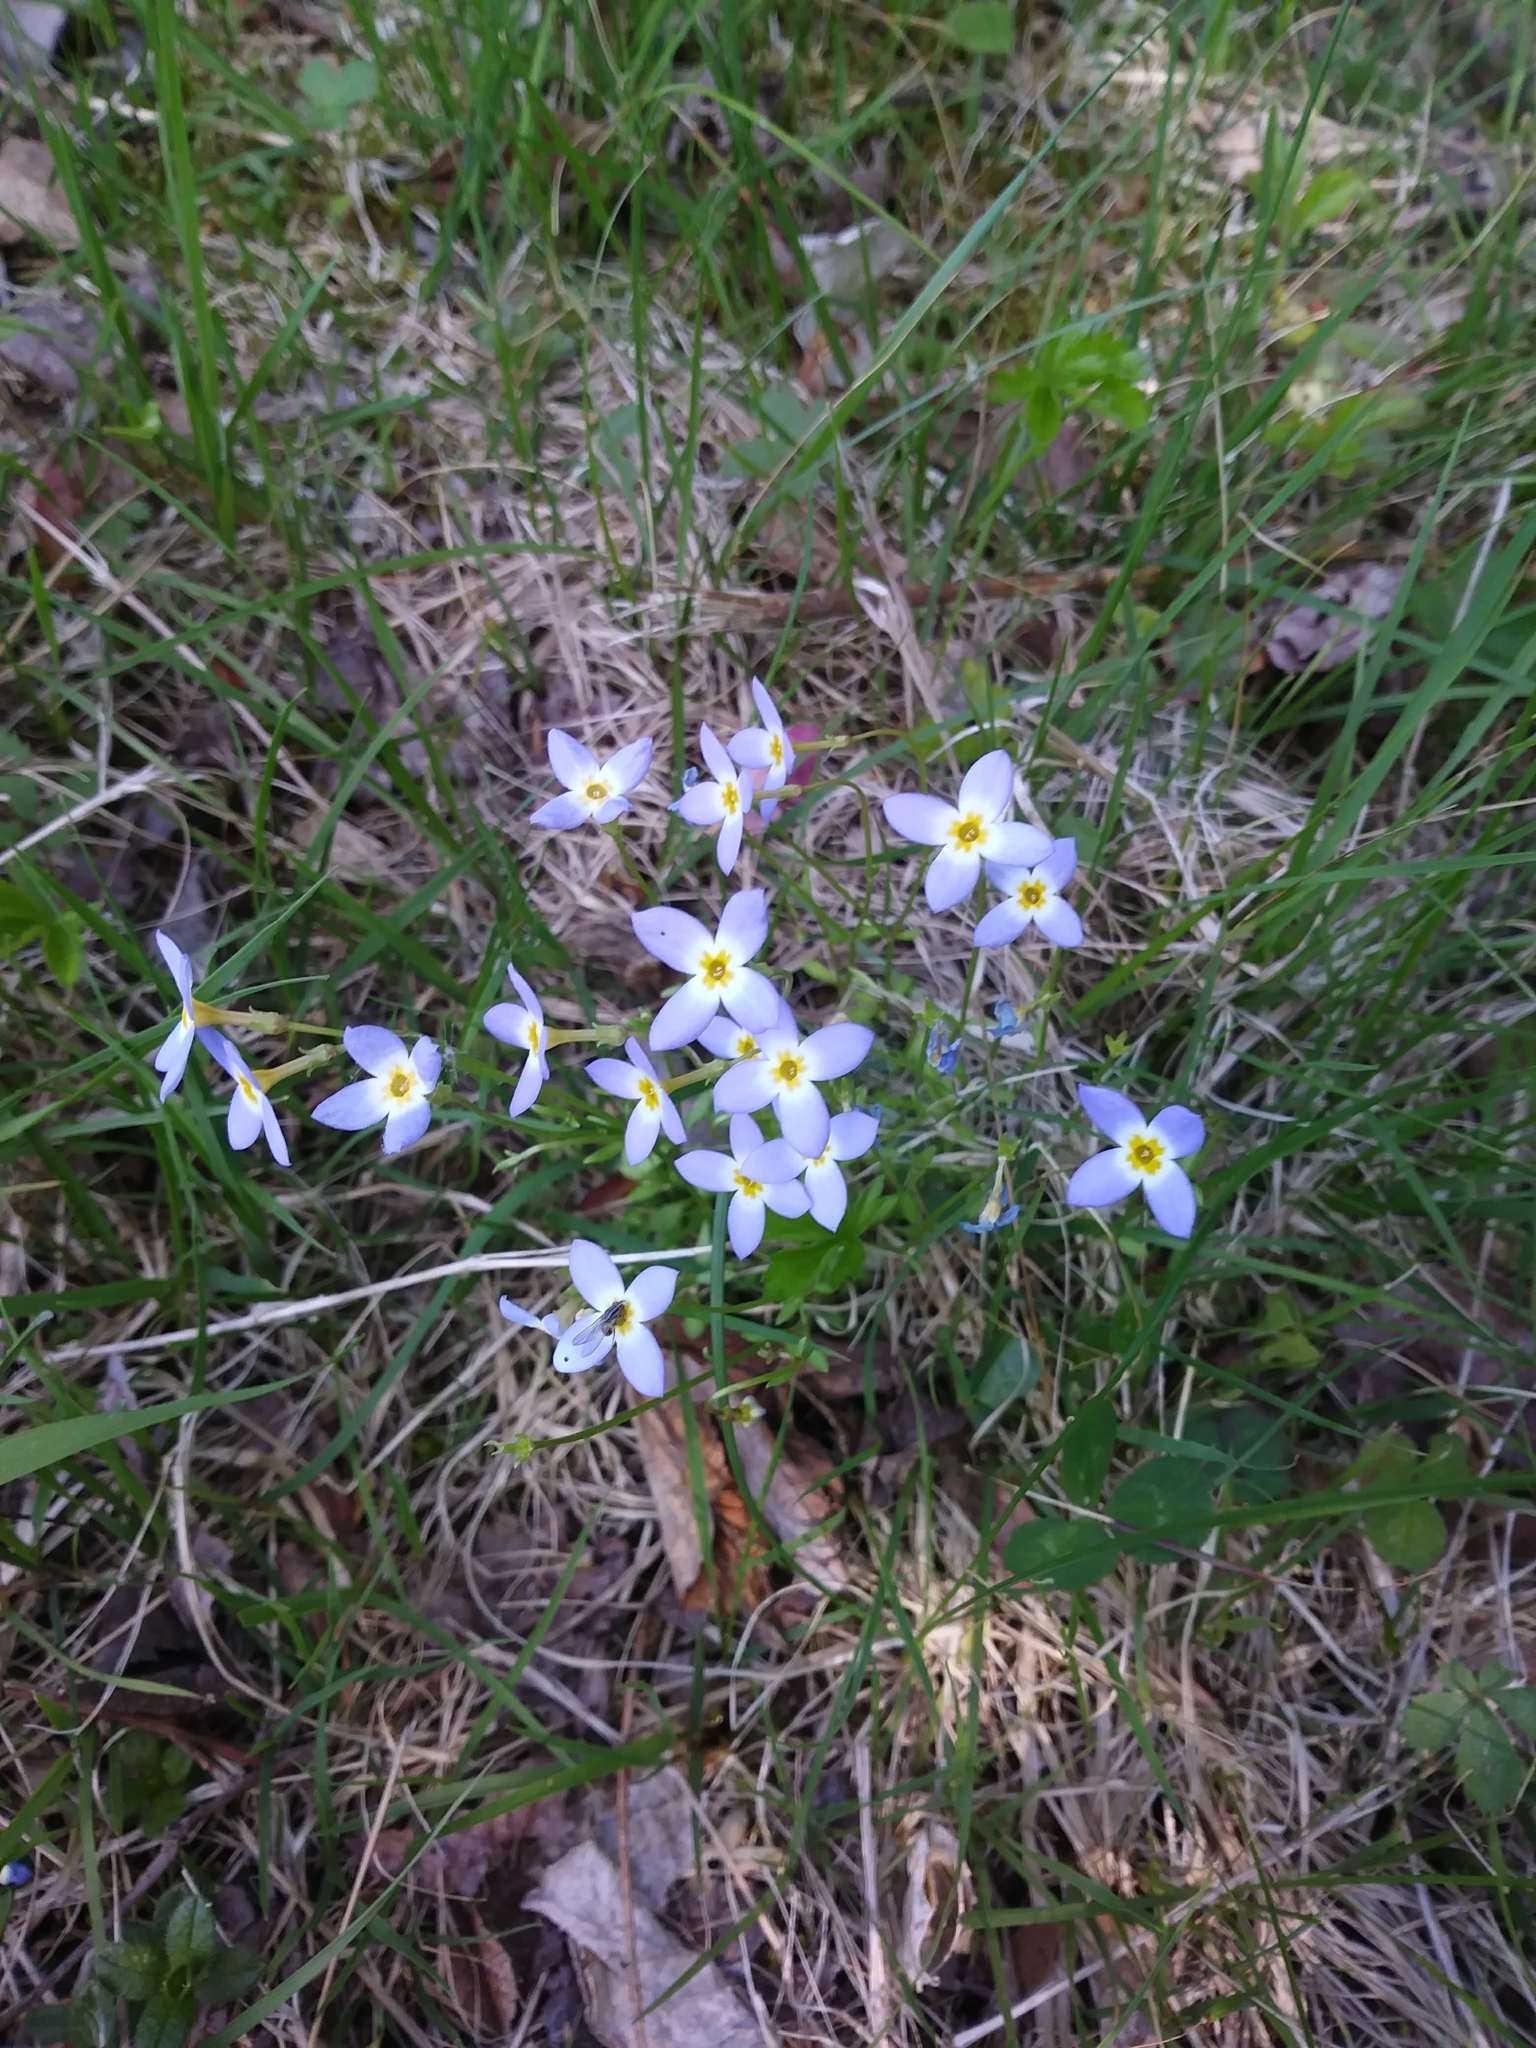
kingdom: Plantae
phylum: Tracheophyta
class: Magnoliopsida
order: Gentianales
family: Rubiaceae
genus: Houstonia
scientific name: Houstonia caerulea
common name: Bluets
